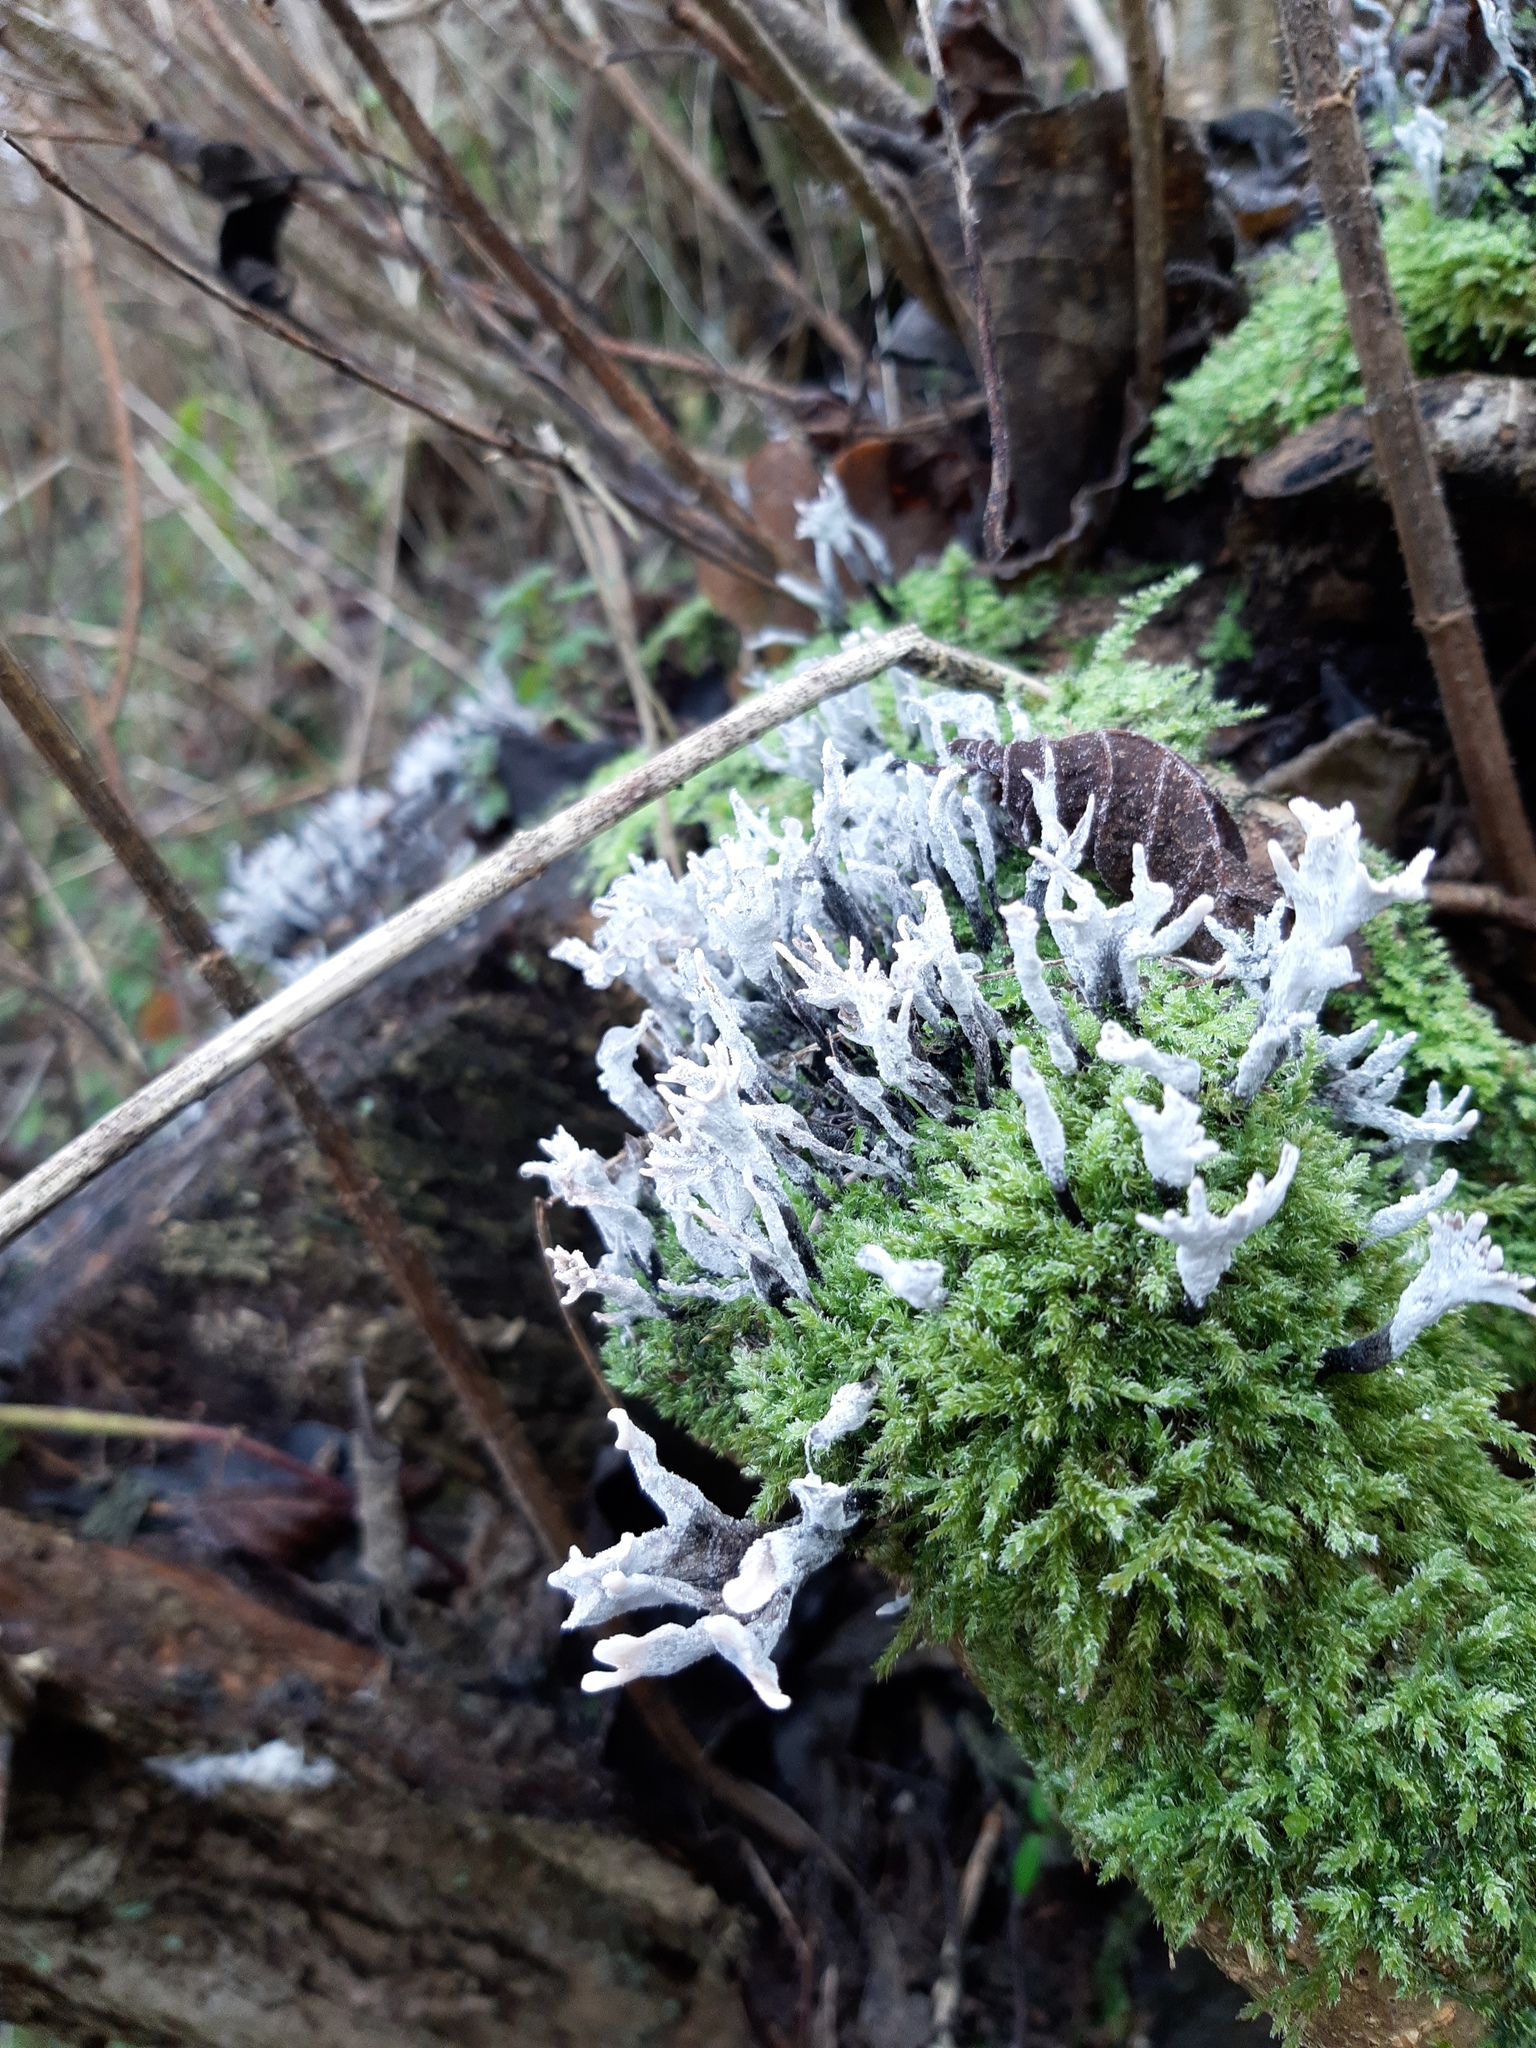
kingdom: Fungi
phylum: Ascomycota
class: Sordariomycetes
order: Xylariales
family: Xylariaceae
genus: Xylaria
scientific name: Xylaria hypoxylon
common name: Candle-snuff fungus
